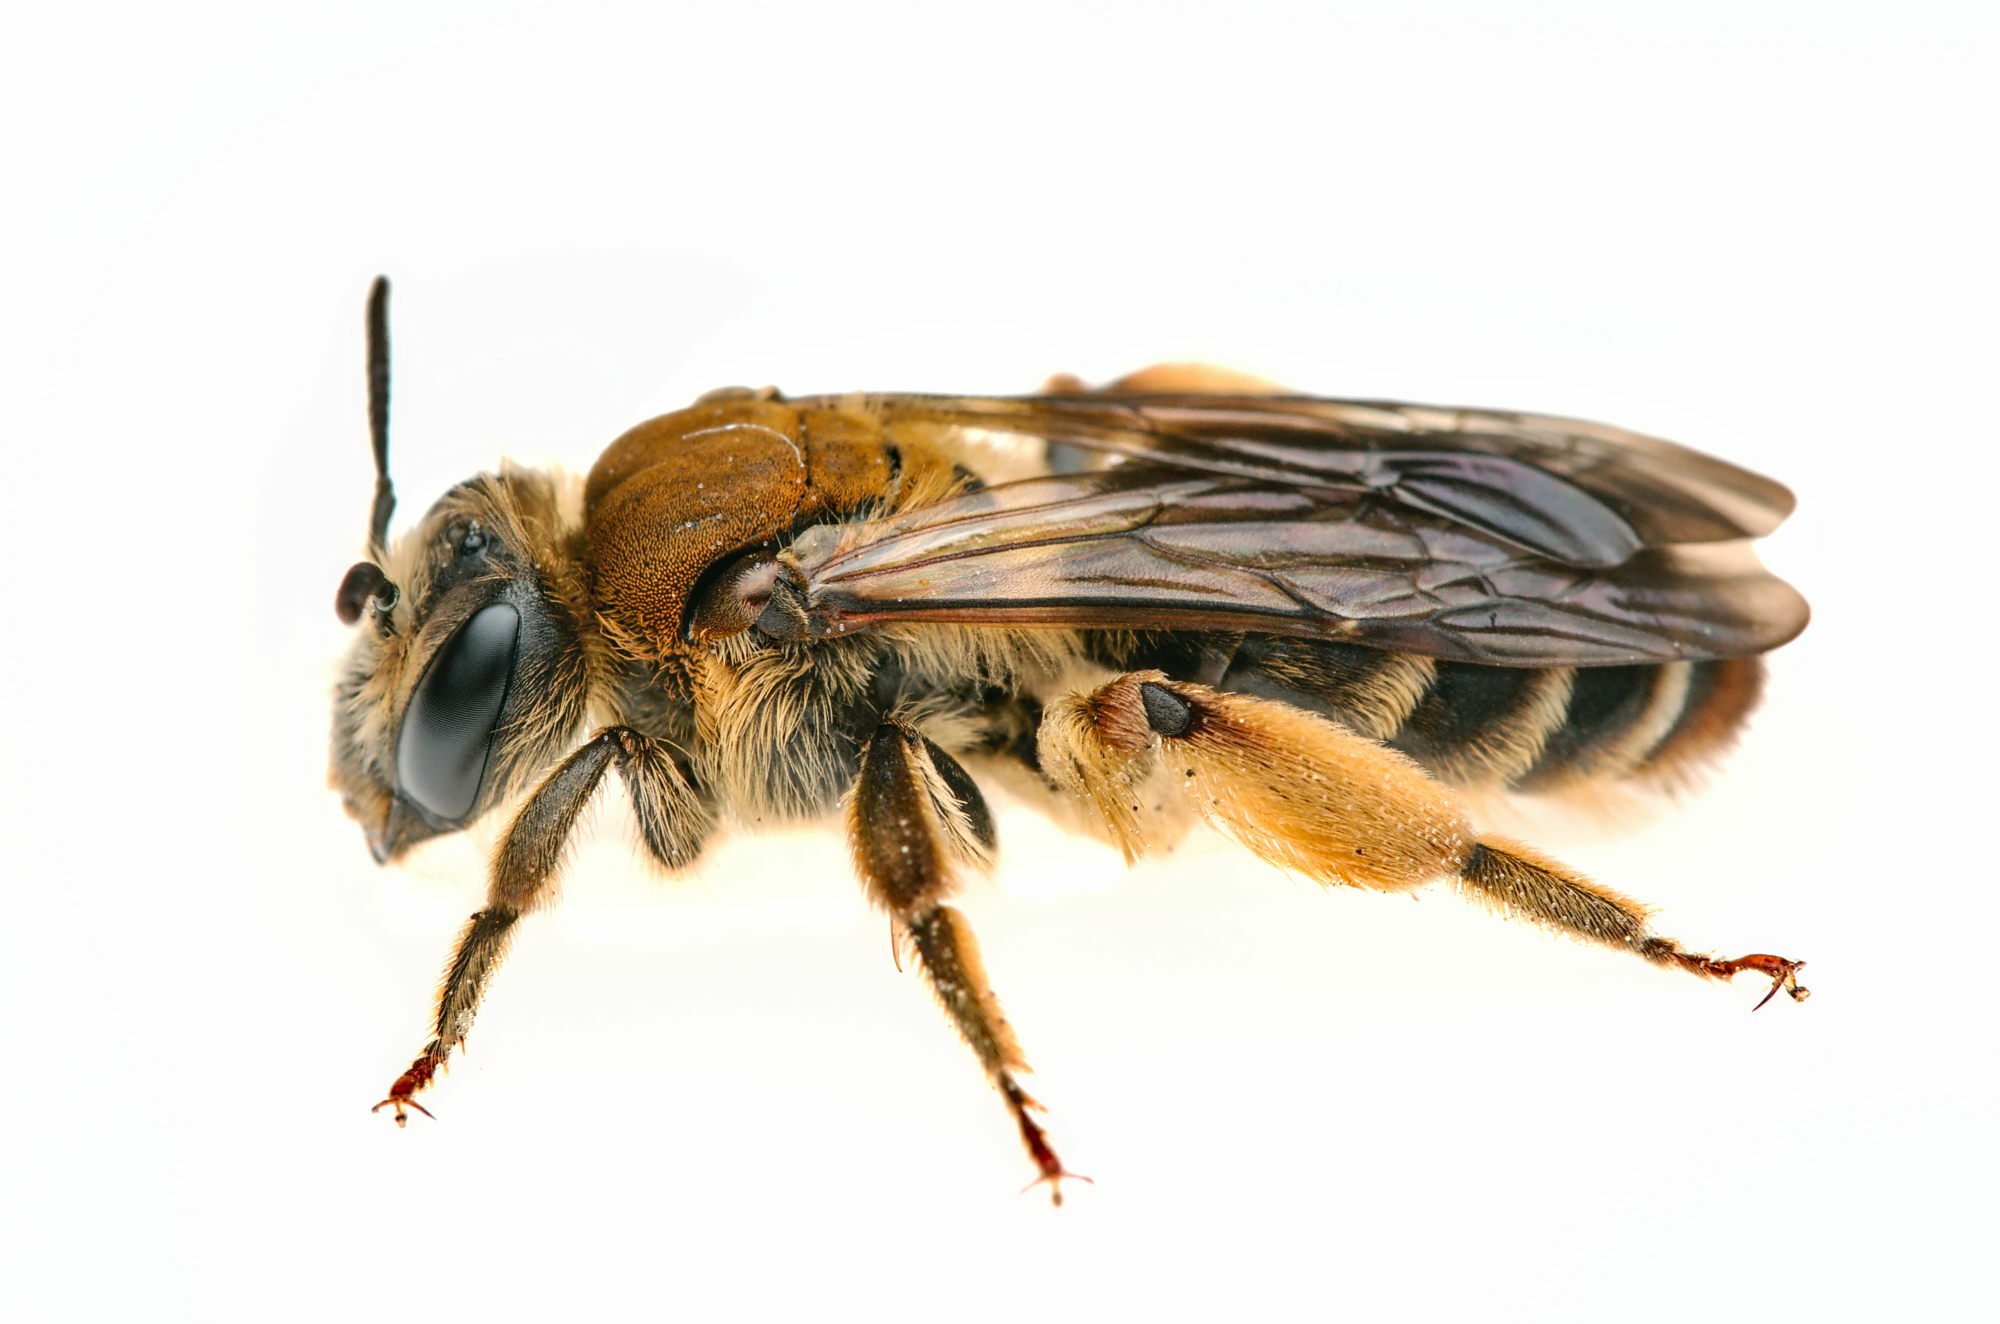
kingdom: Animalia
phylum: Arthropoda
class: Insecta
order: Hymenoptera
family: Andrenidae
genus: Andrena
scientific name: Andrena curvungula
